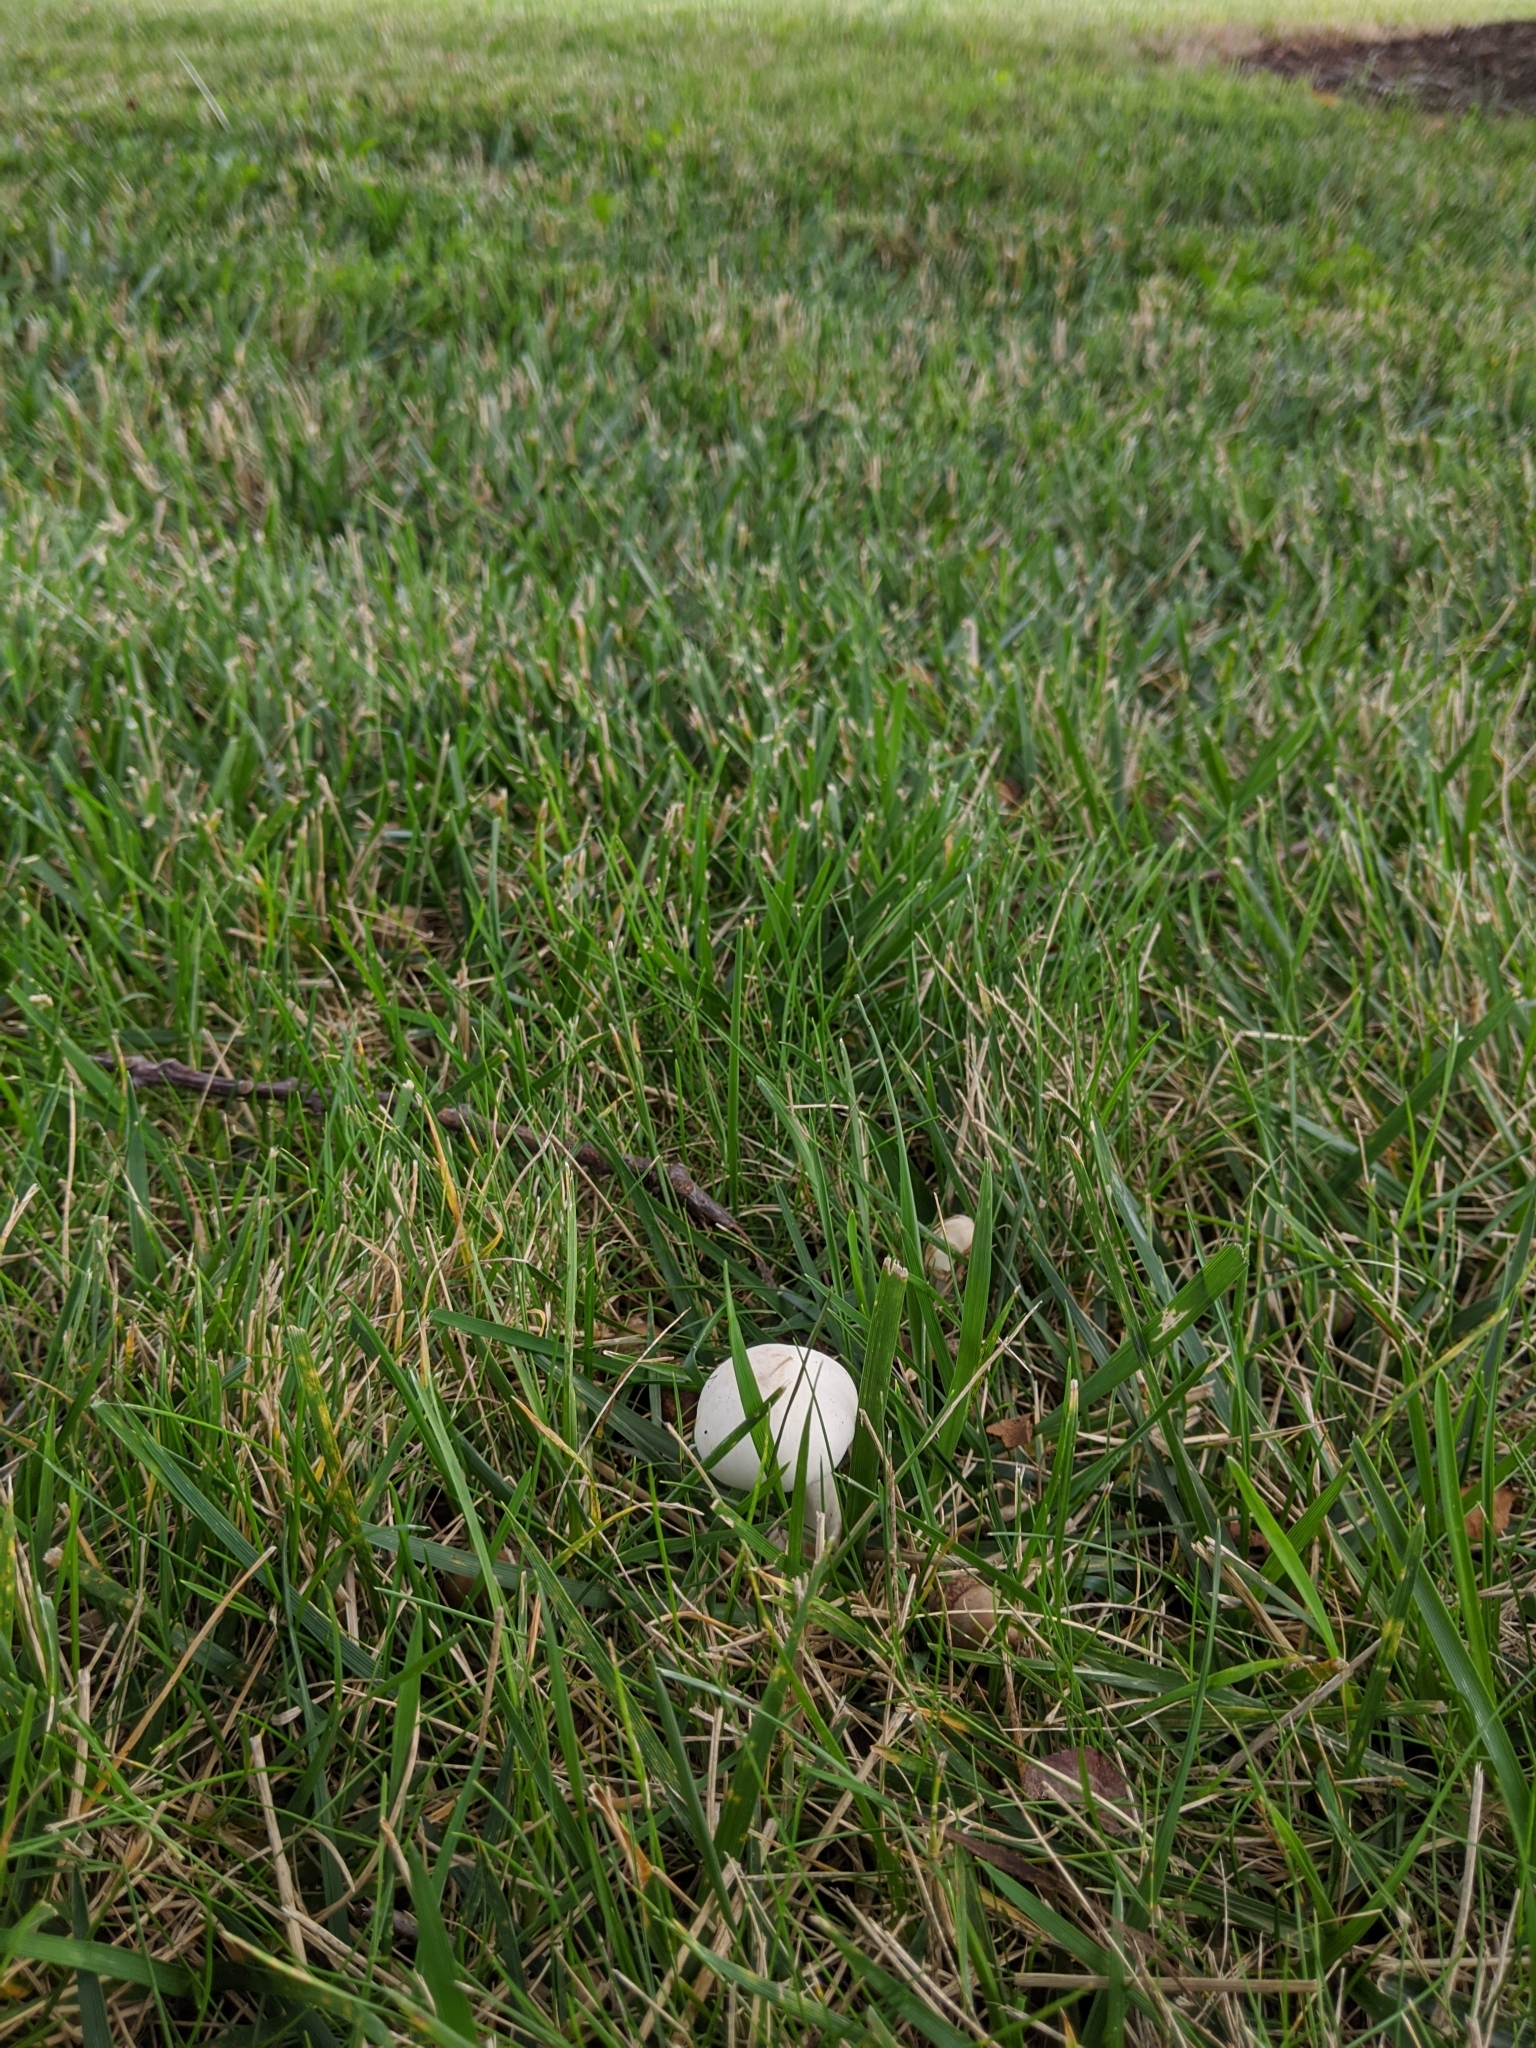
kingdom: Fungi
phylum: Basidiomycota
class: Agaricomycetes
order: Agaricales
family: Agaricaceae
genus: Leucoagaricus
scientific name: Leucoagaricus leucothites
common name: White dapperling
